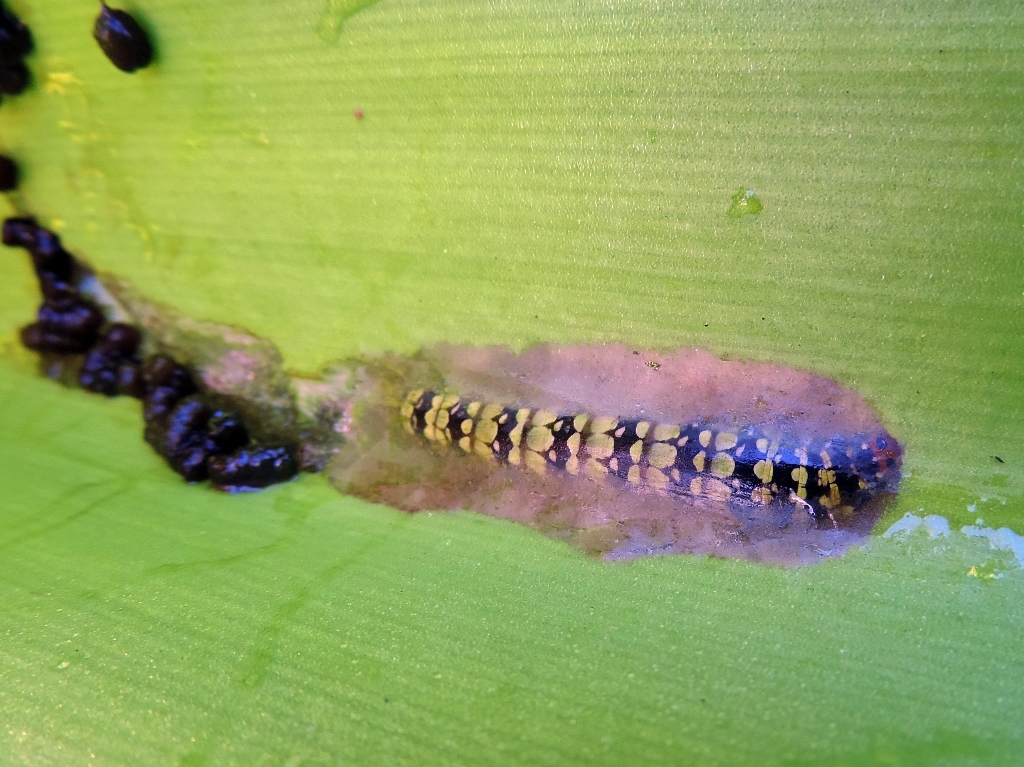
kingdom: Animalia
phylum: Arthropoda
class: Insecta
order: Lepidoptera
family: Noctuidae
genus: Brithys
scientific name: Brithys crini
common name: Kew arches
